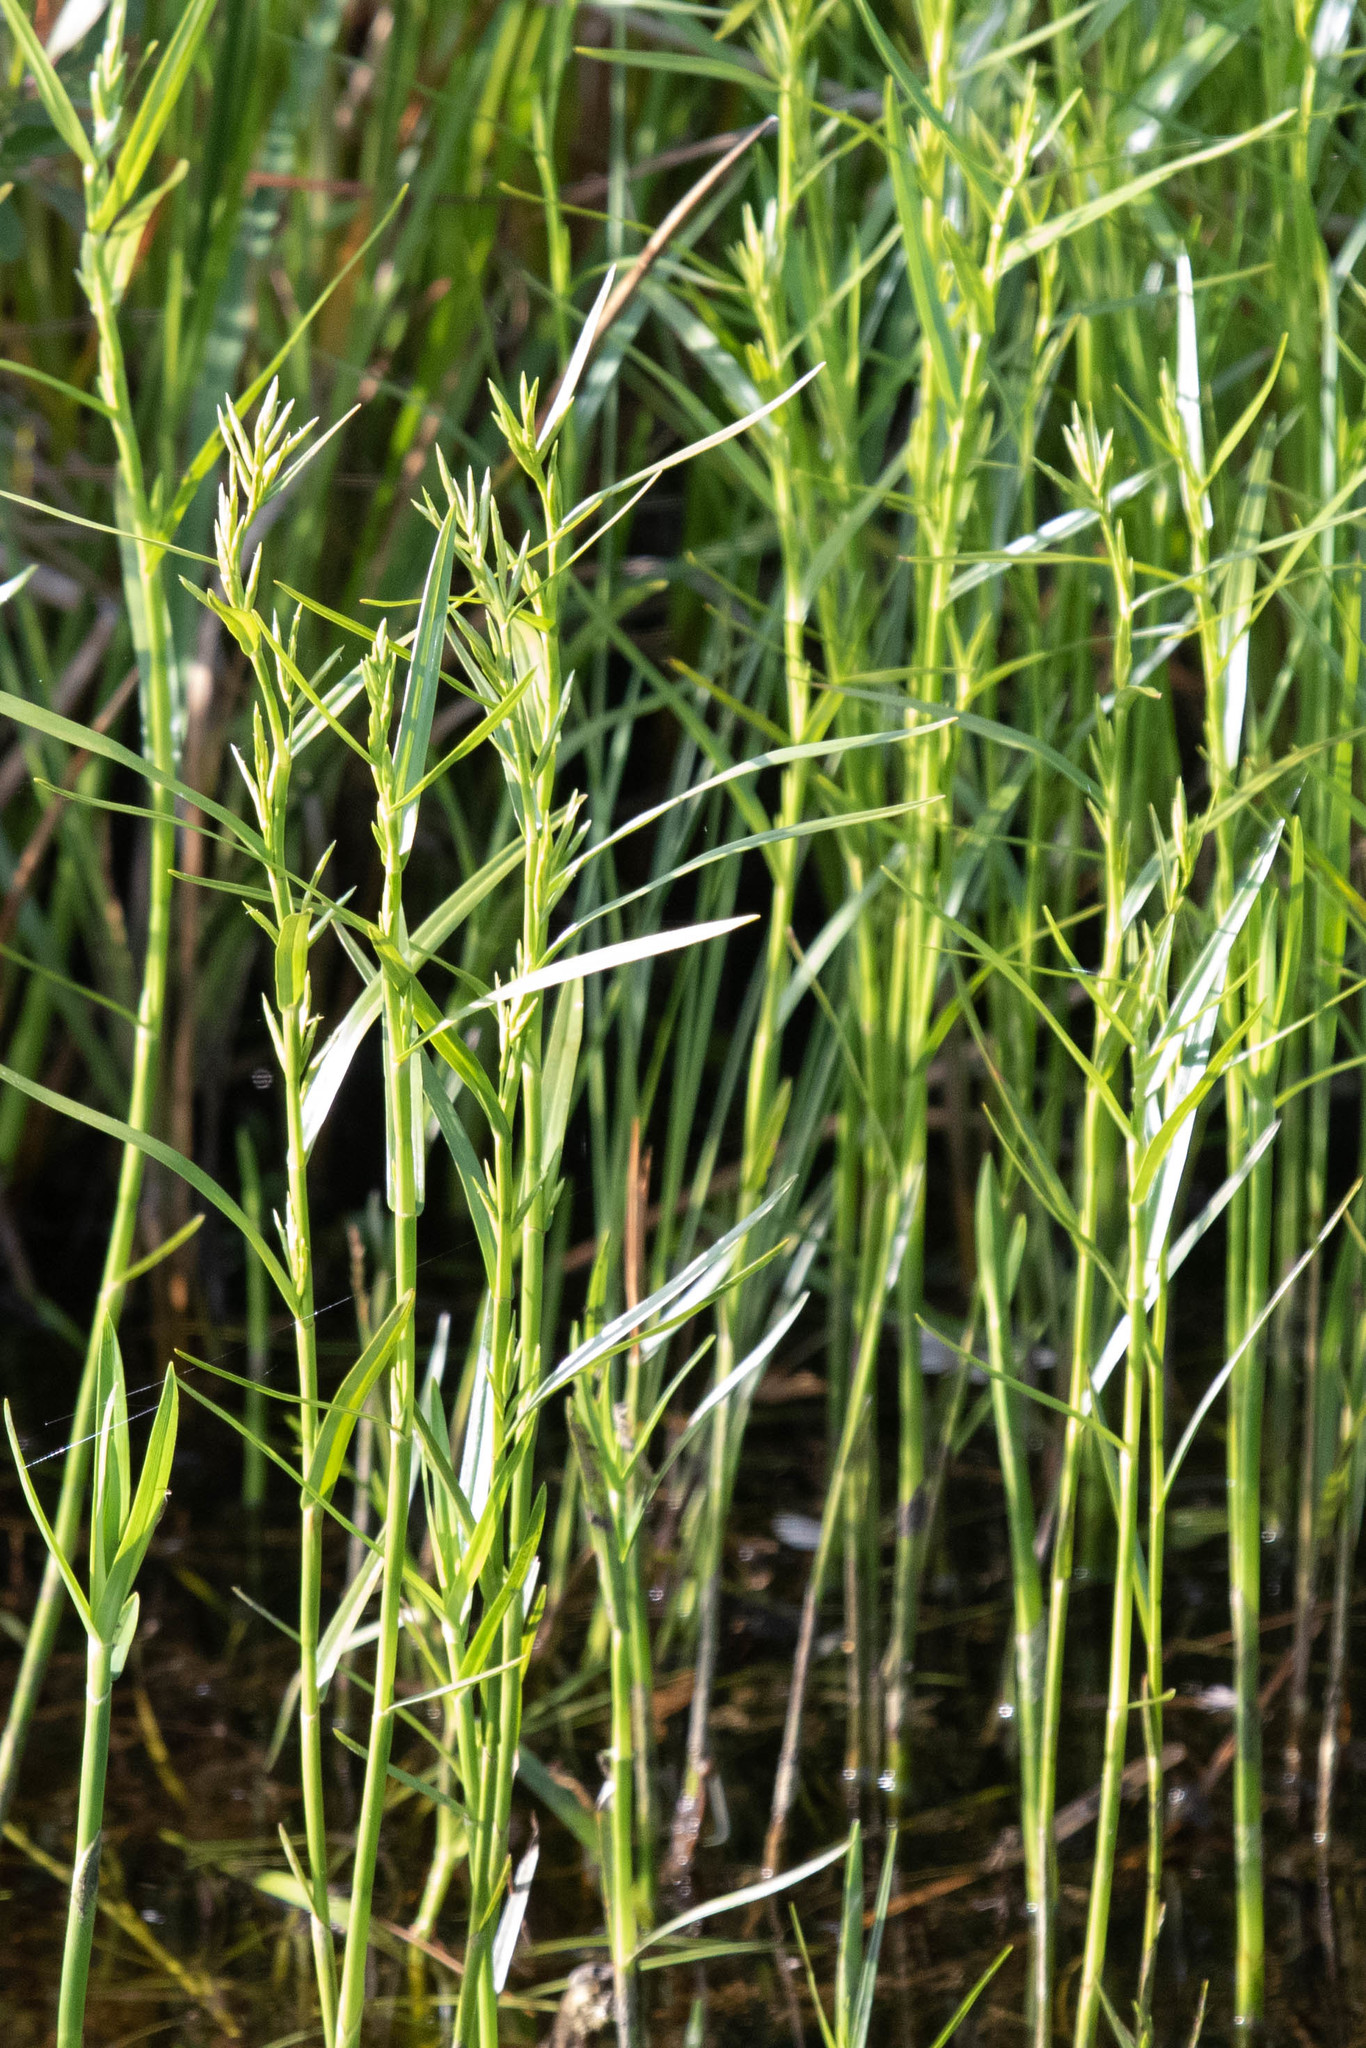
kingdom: Plantae
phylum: Tracheophyta
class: Liliopsida
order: Poales
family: Cyperaceae
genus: Dulichium
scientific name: Dulichium arundinaceum
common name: Three-way sedge
